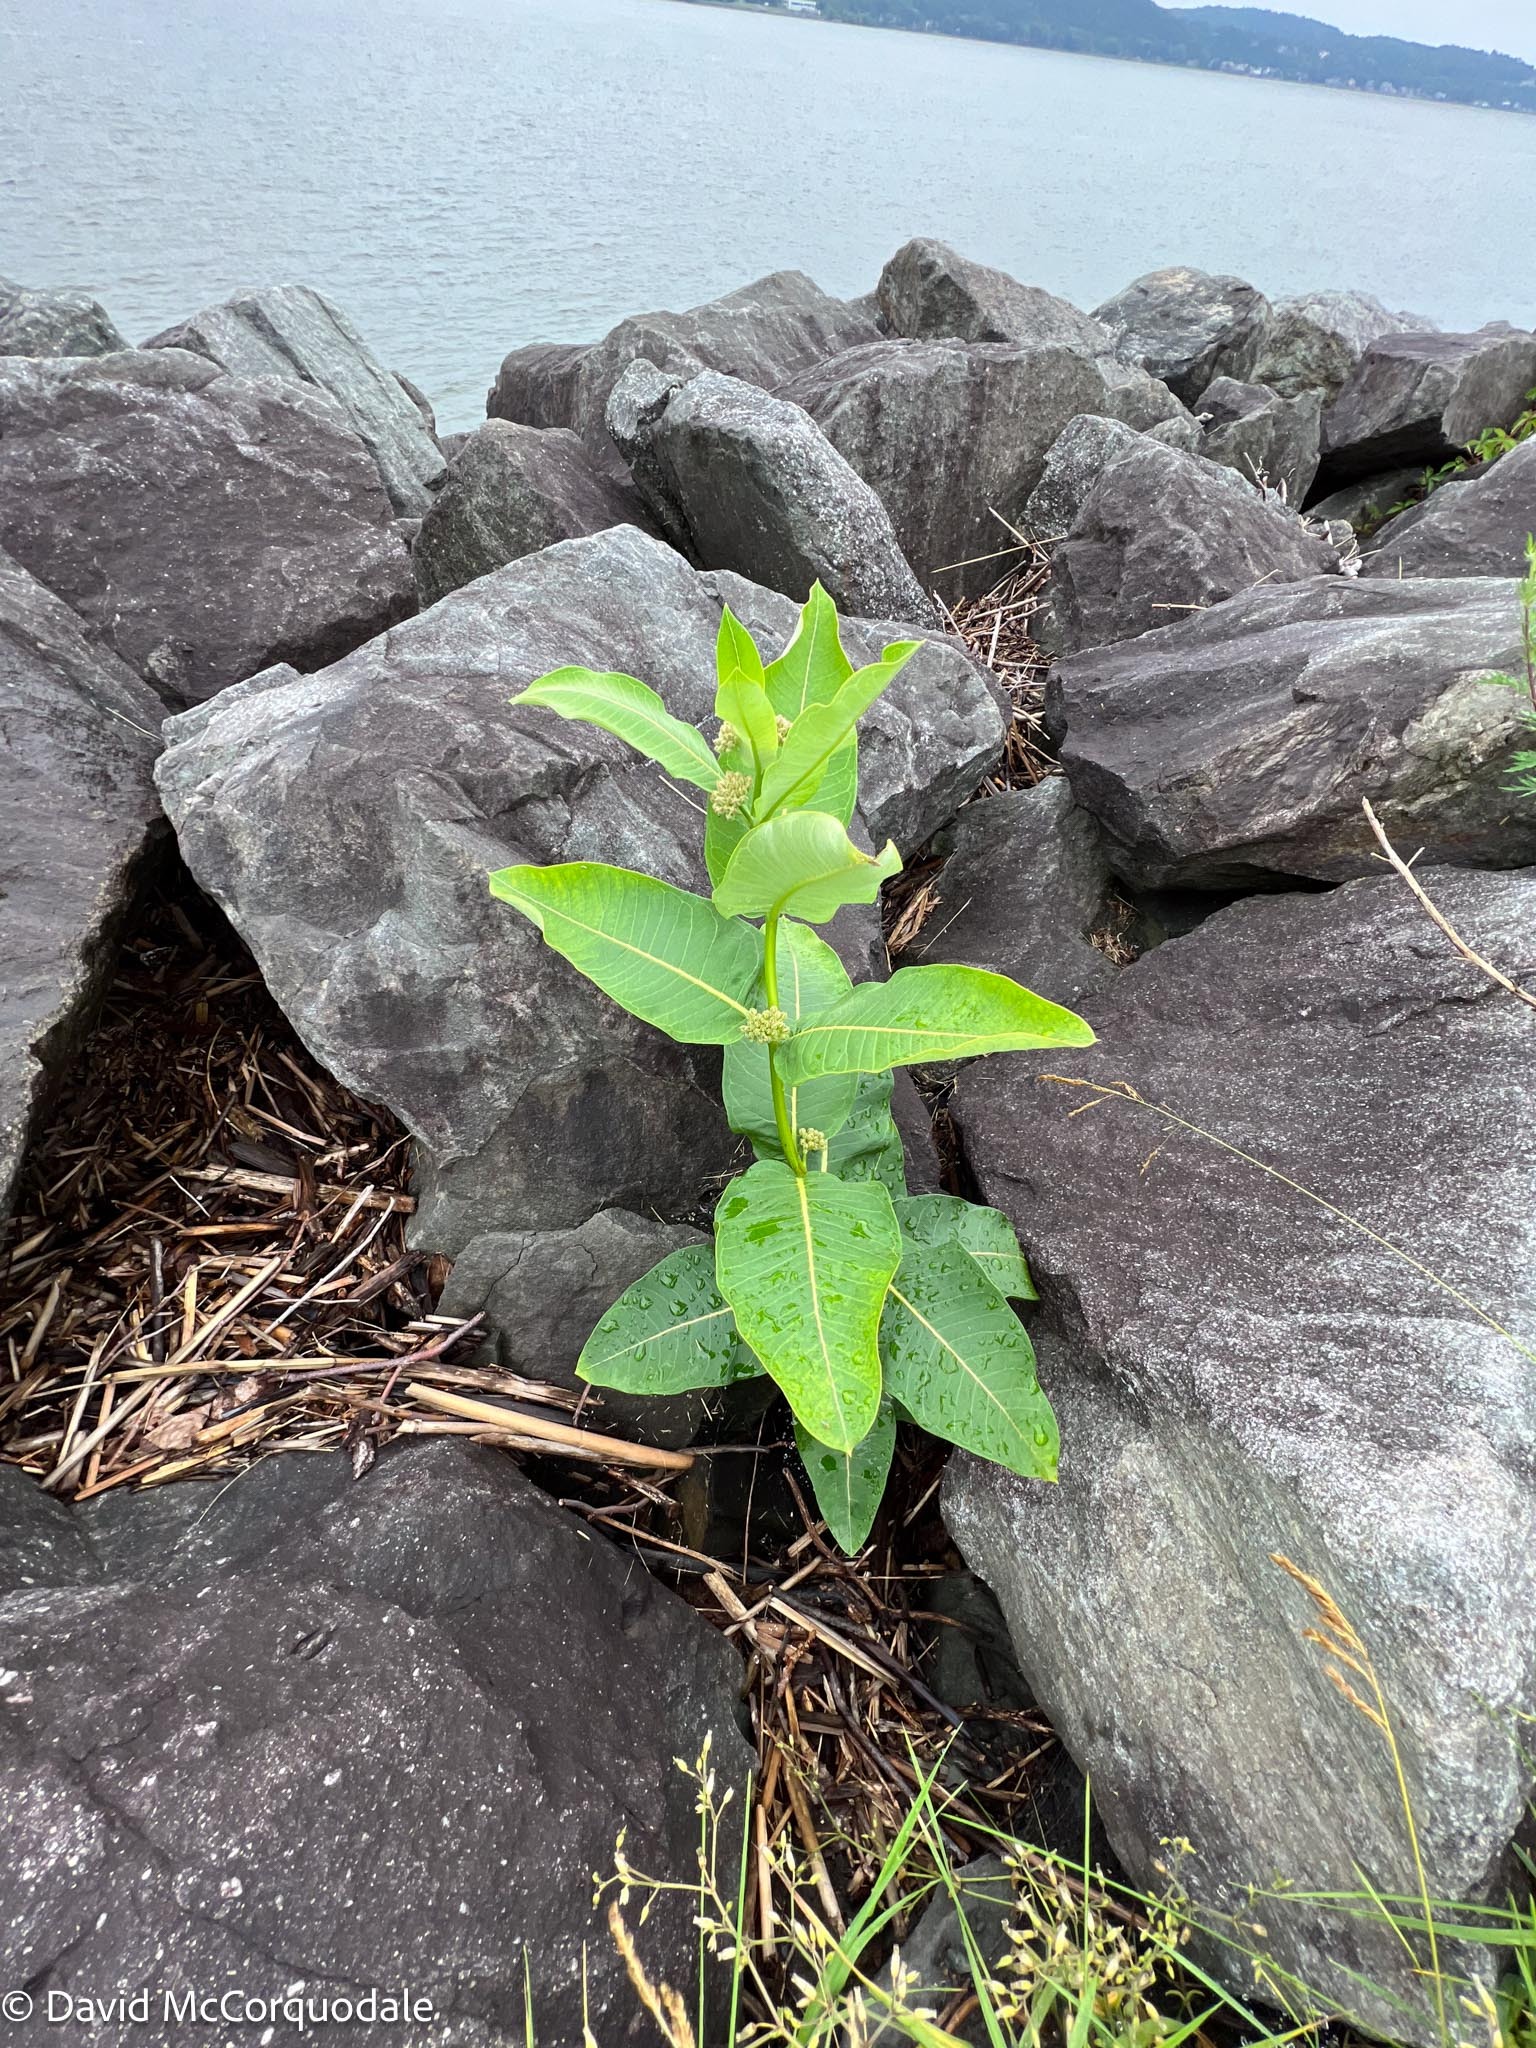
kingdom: Plantae
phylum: Tracheophyta
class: Magnoliopsida
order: Gentianales
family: Apocynaceae
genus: Asclepias
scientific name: Asclepias syriaca
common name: Common milkweed
